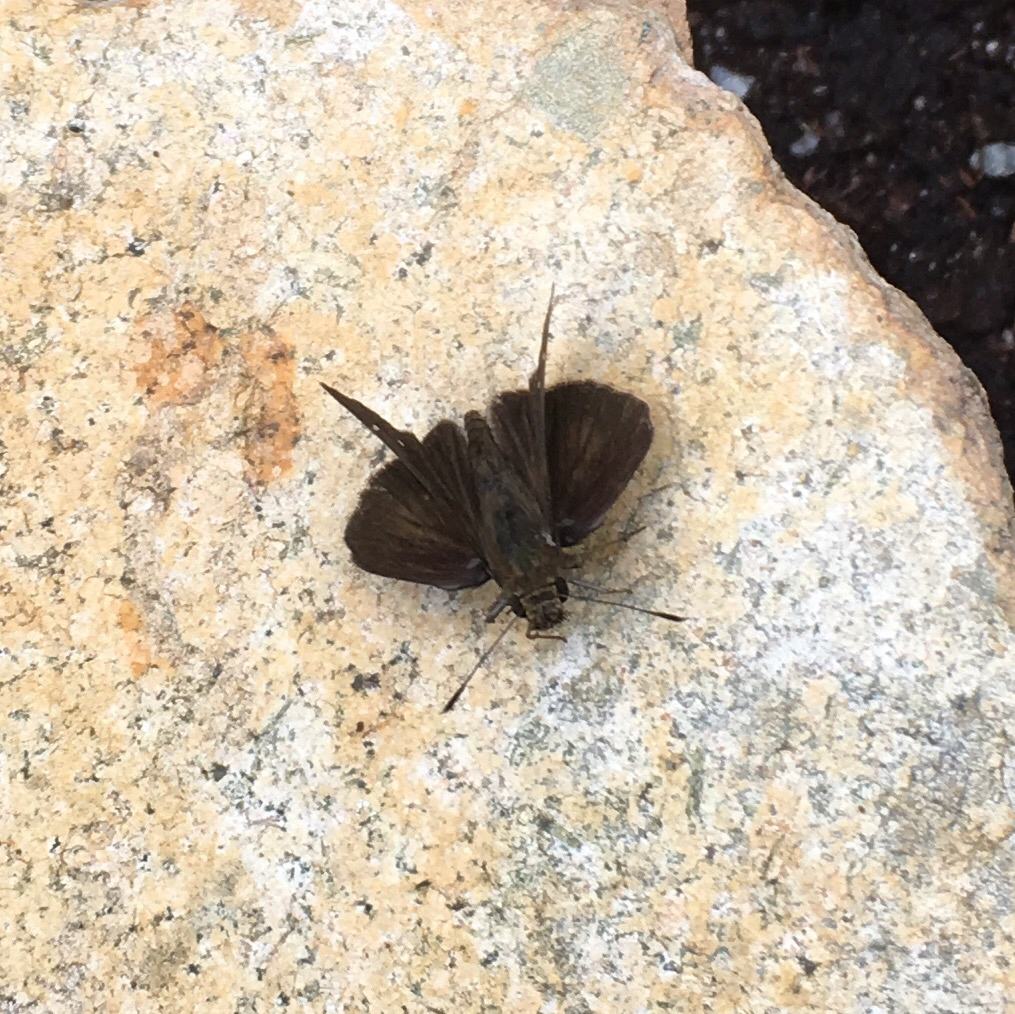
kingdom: Animalia
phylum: Arthropoda
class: Insecta
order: Lepidoptera
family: Hesperiidae
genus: Lerema
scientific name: Lerema accius
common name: Clouded skipper
